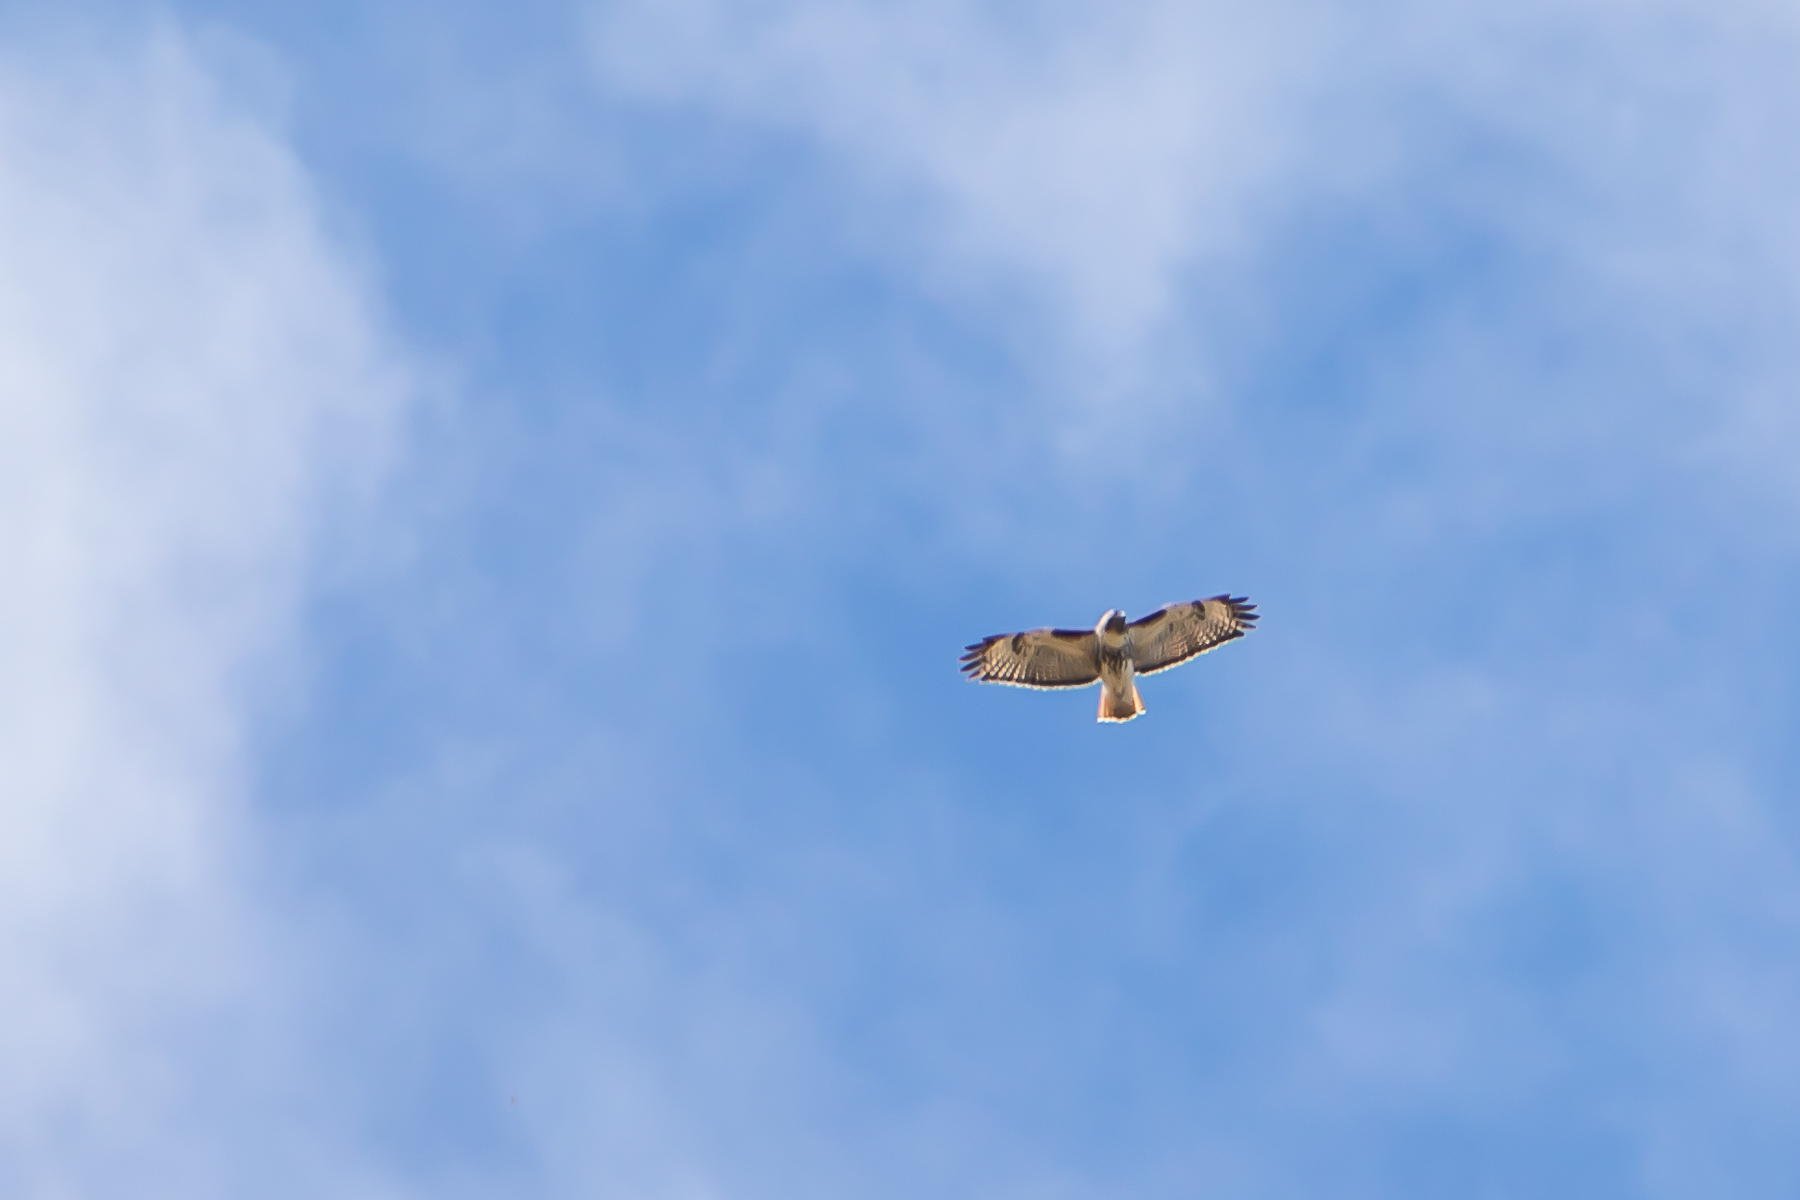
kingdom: Animalia
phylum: Chordata
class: Aves
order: Accipitriformes
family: Accipitridae
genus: Buteo
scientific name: Buteo jamaicensis
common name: Red-tailed hawk
